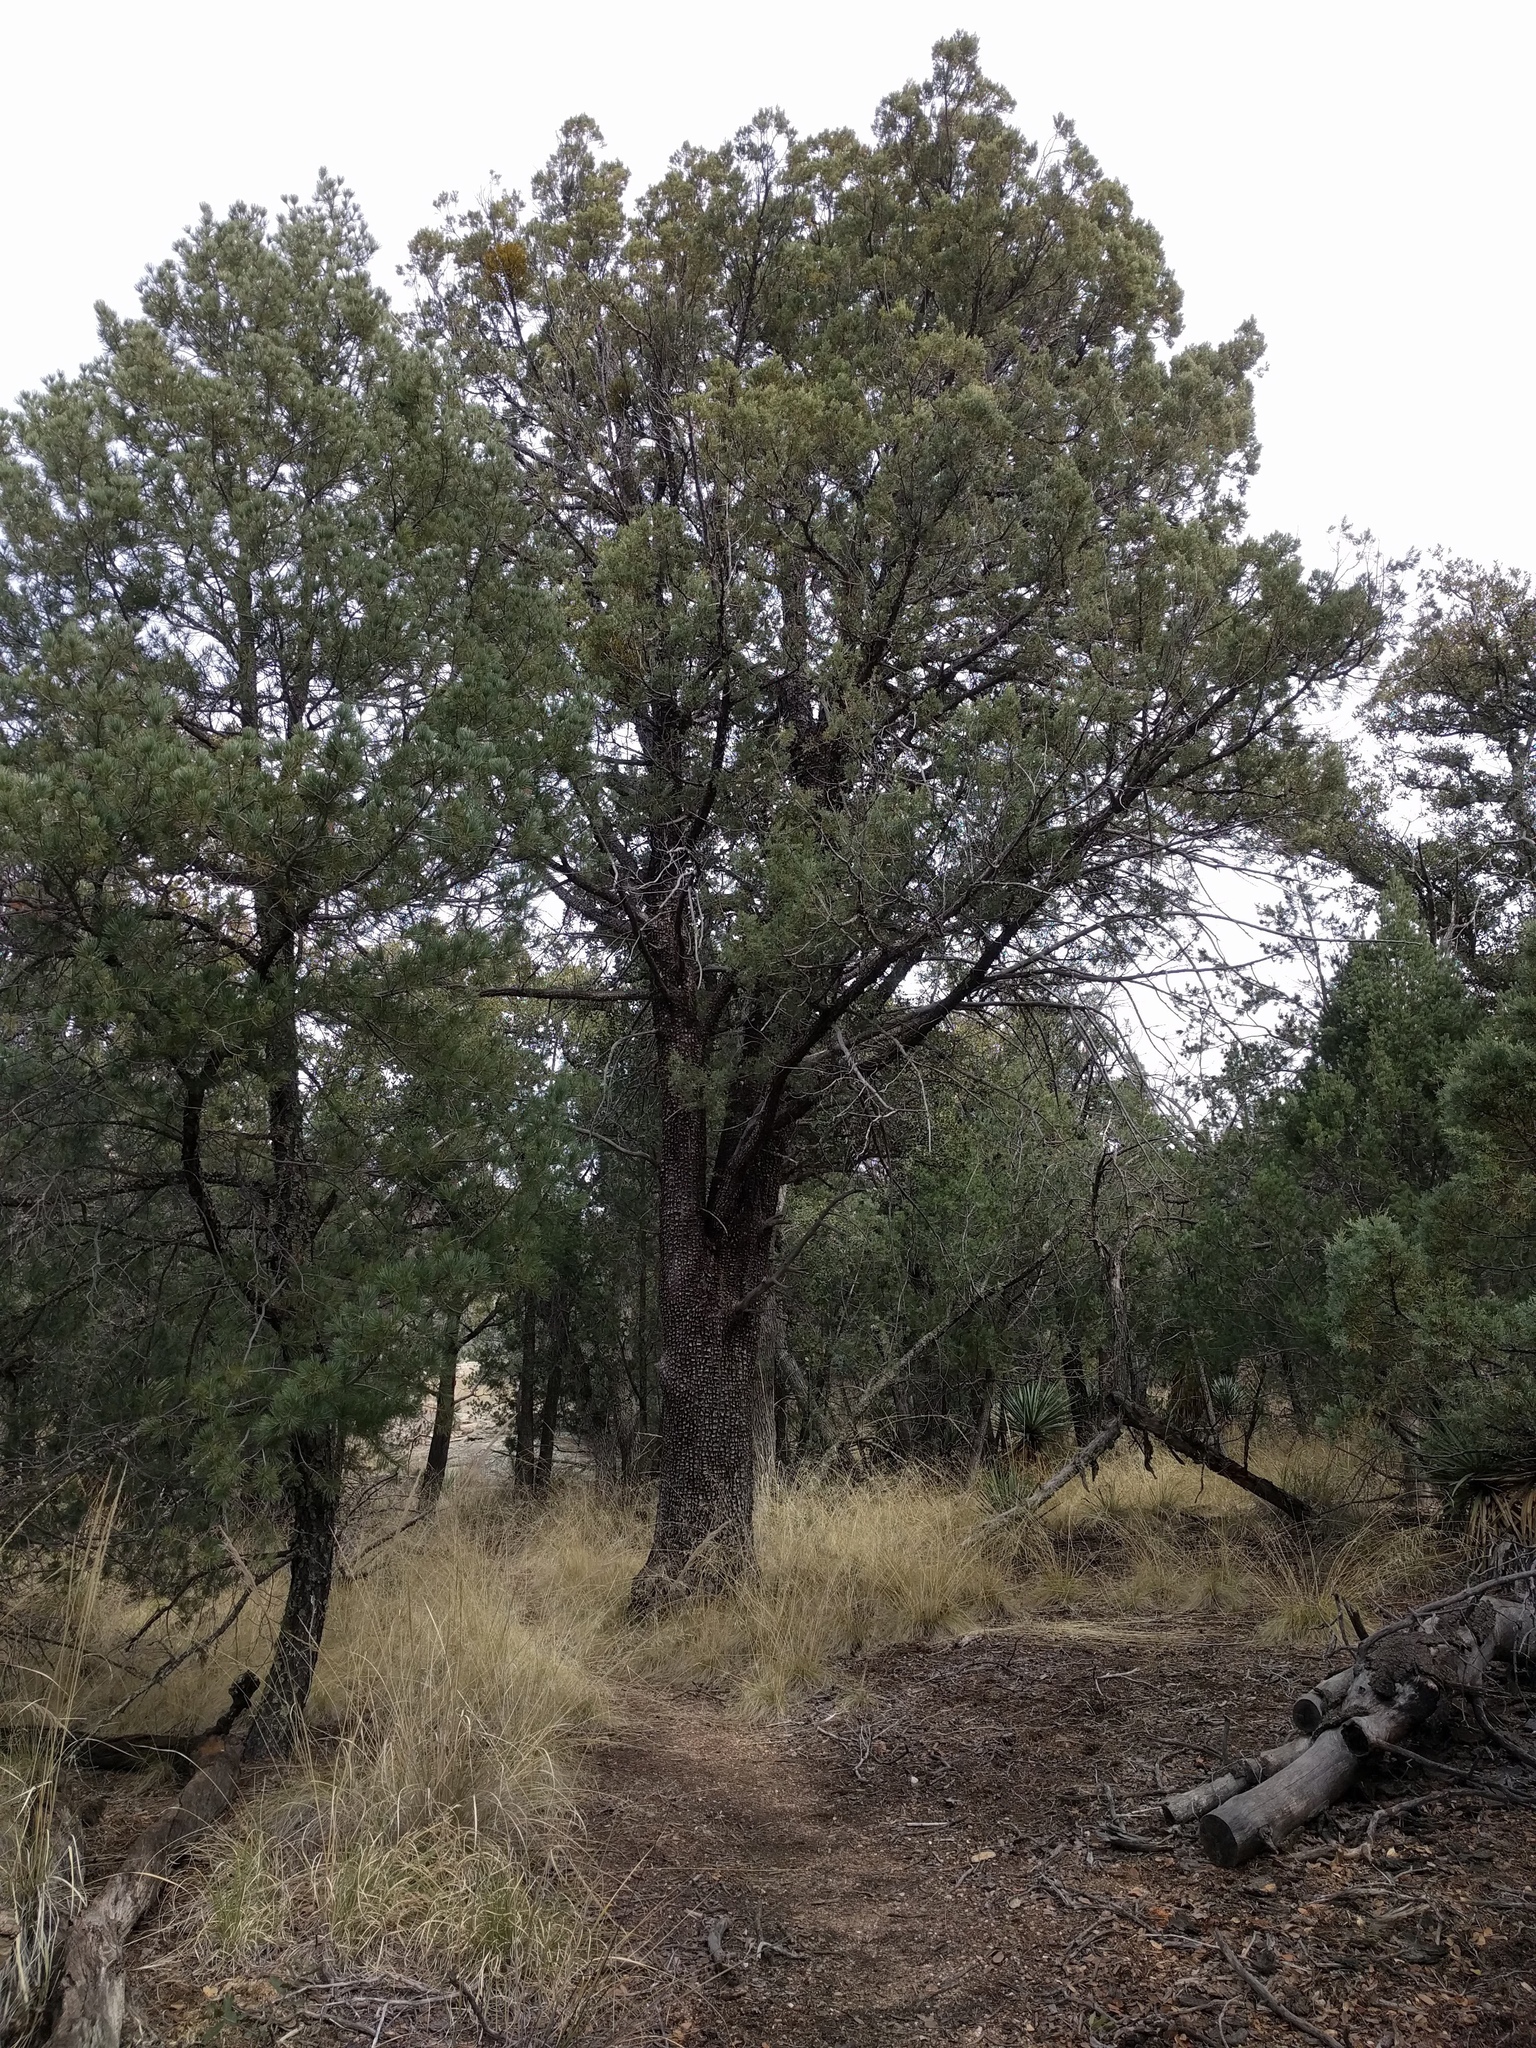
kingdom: Plantae
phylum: Tracheophyta
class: Pinopsida
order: Pinales
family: Cupressaceae
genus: Juniperus
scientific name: Juniperus deppeana
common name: Alligator juniper
